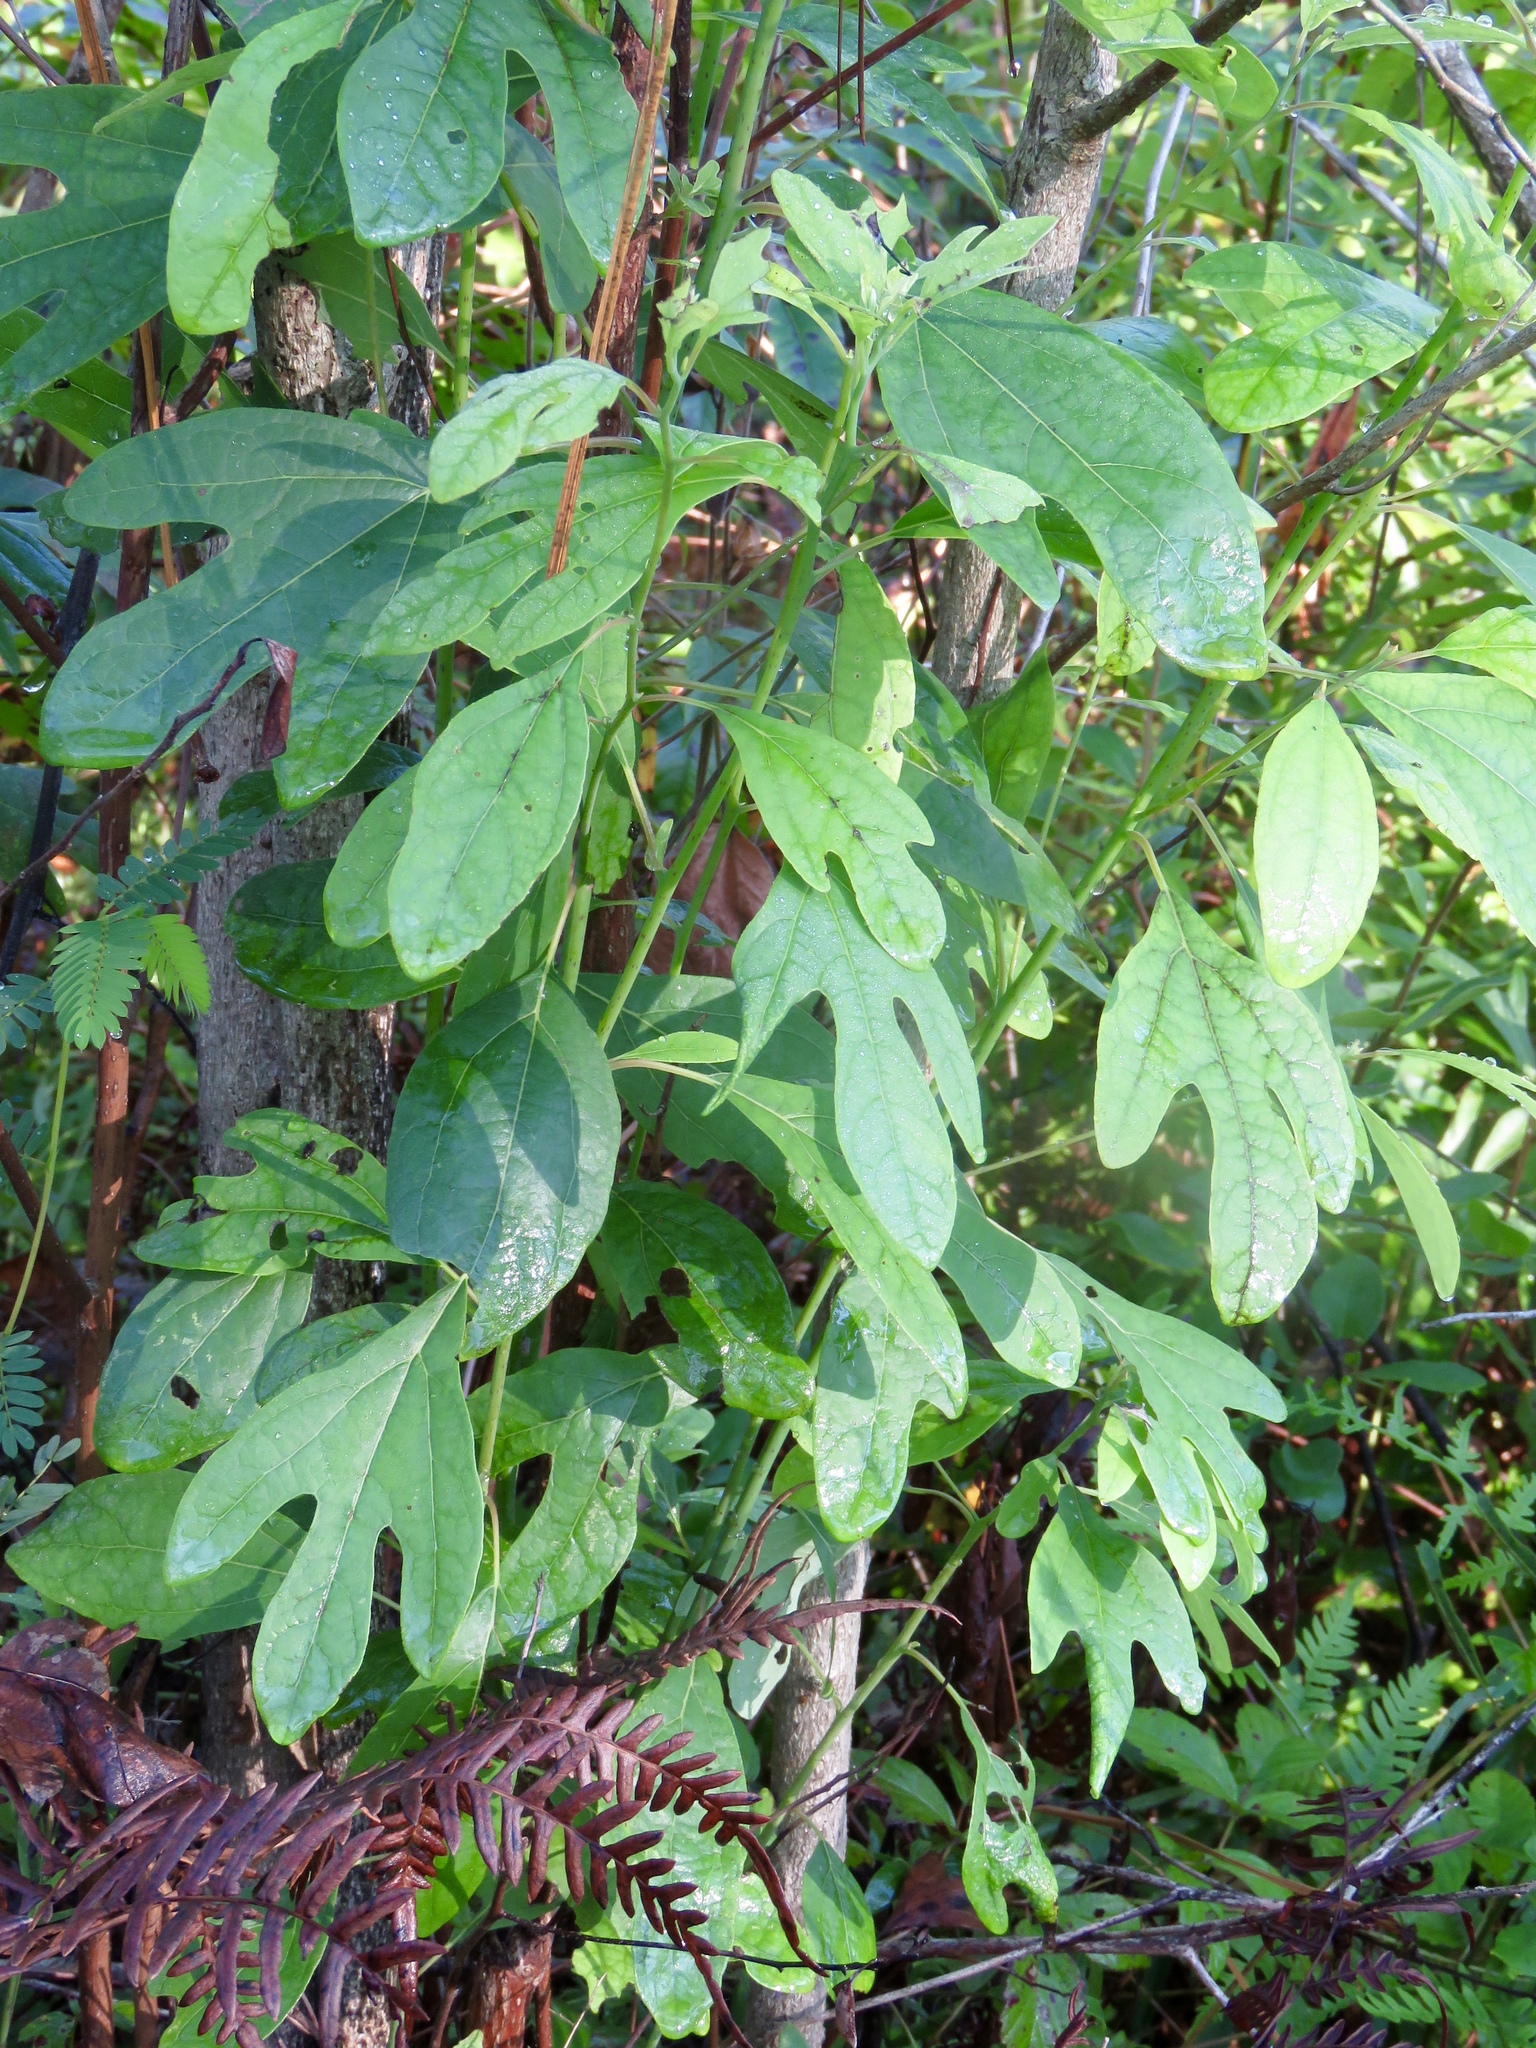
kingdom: Plantae
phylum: Tracheophyta
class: Magnoliopsida
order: Laurales
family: Lauraceae
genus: Sassafras
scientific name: Sassafras albidum
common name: Sassafras
